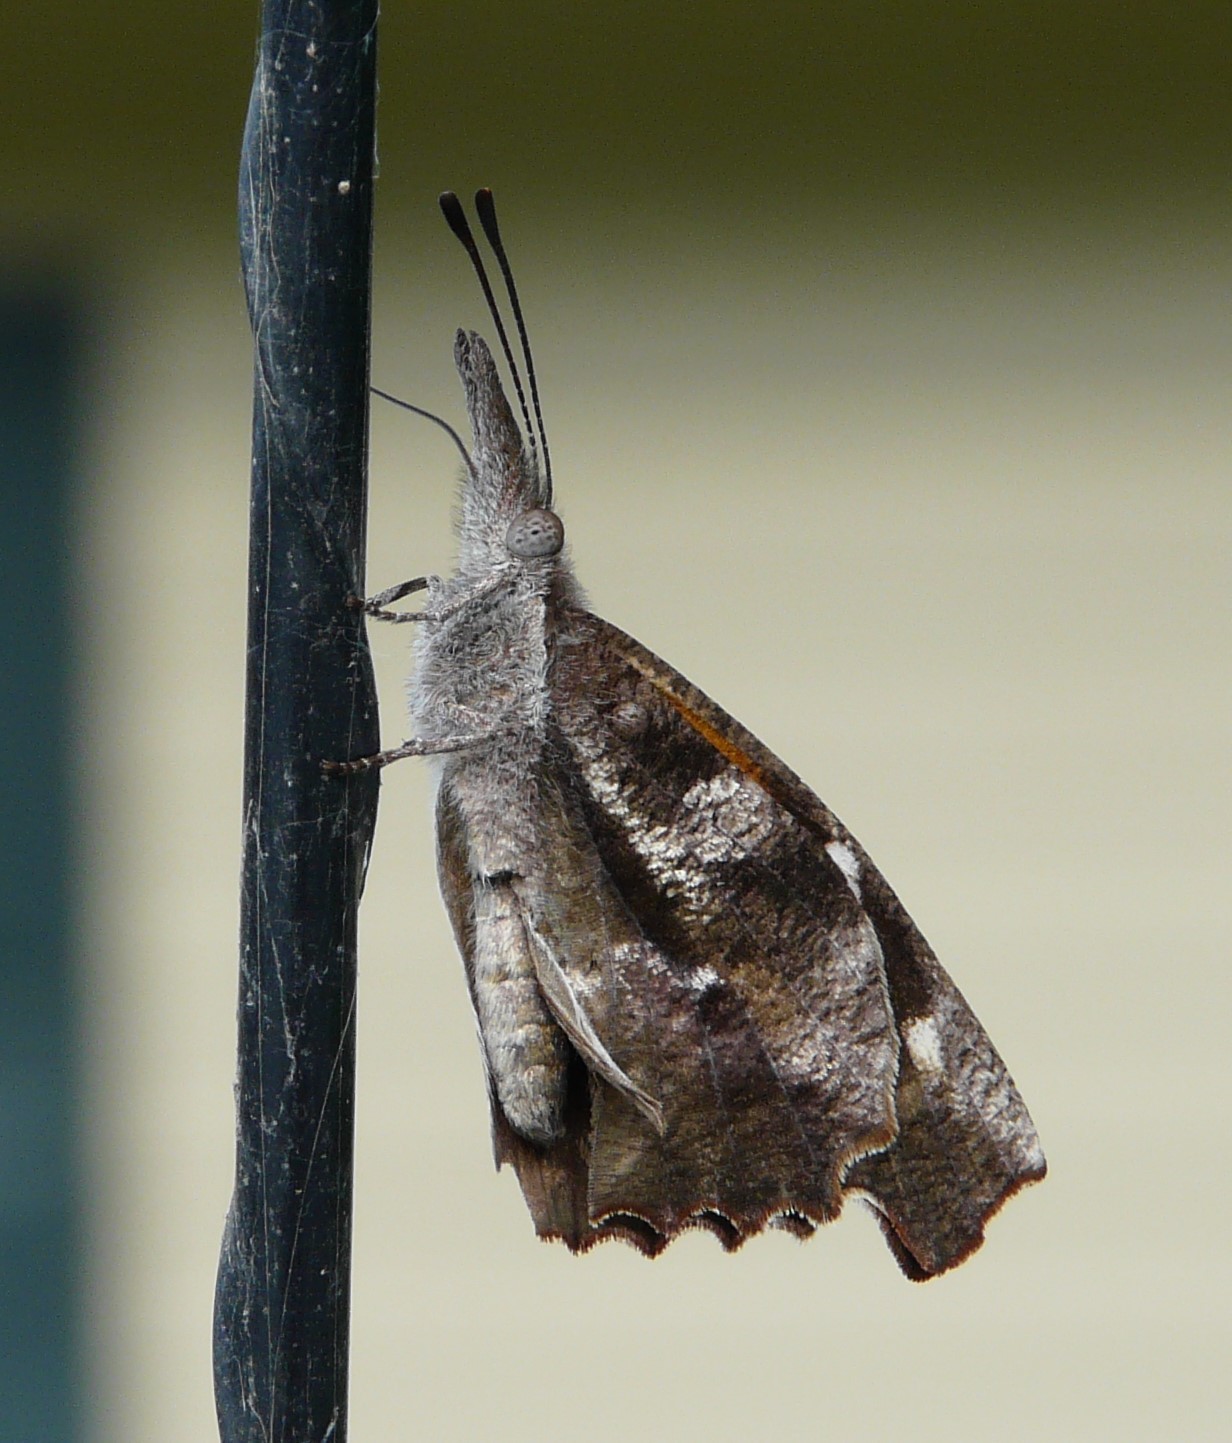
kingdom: Animalia
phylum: Arthropoda
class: Insecta
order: Lepidoptera
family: Nymphalidae
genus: Libytheana
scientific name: Libytheana carinenta
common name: American snout
